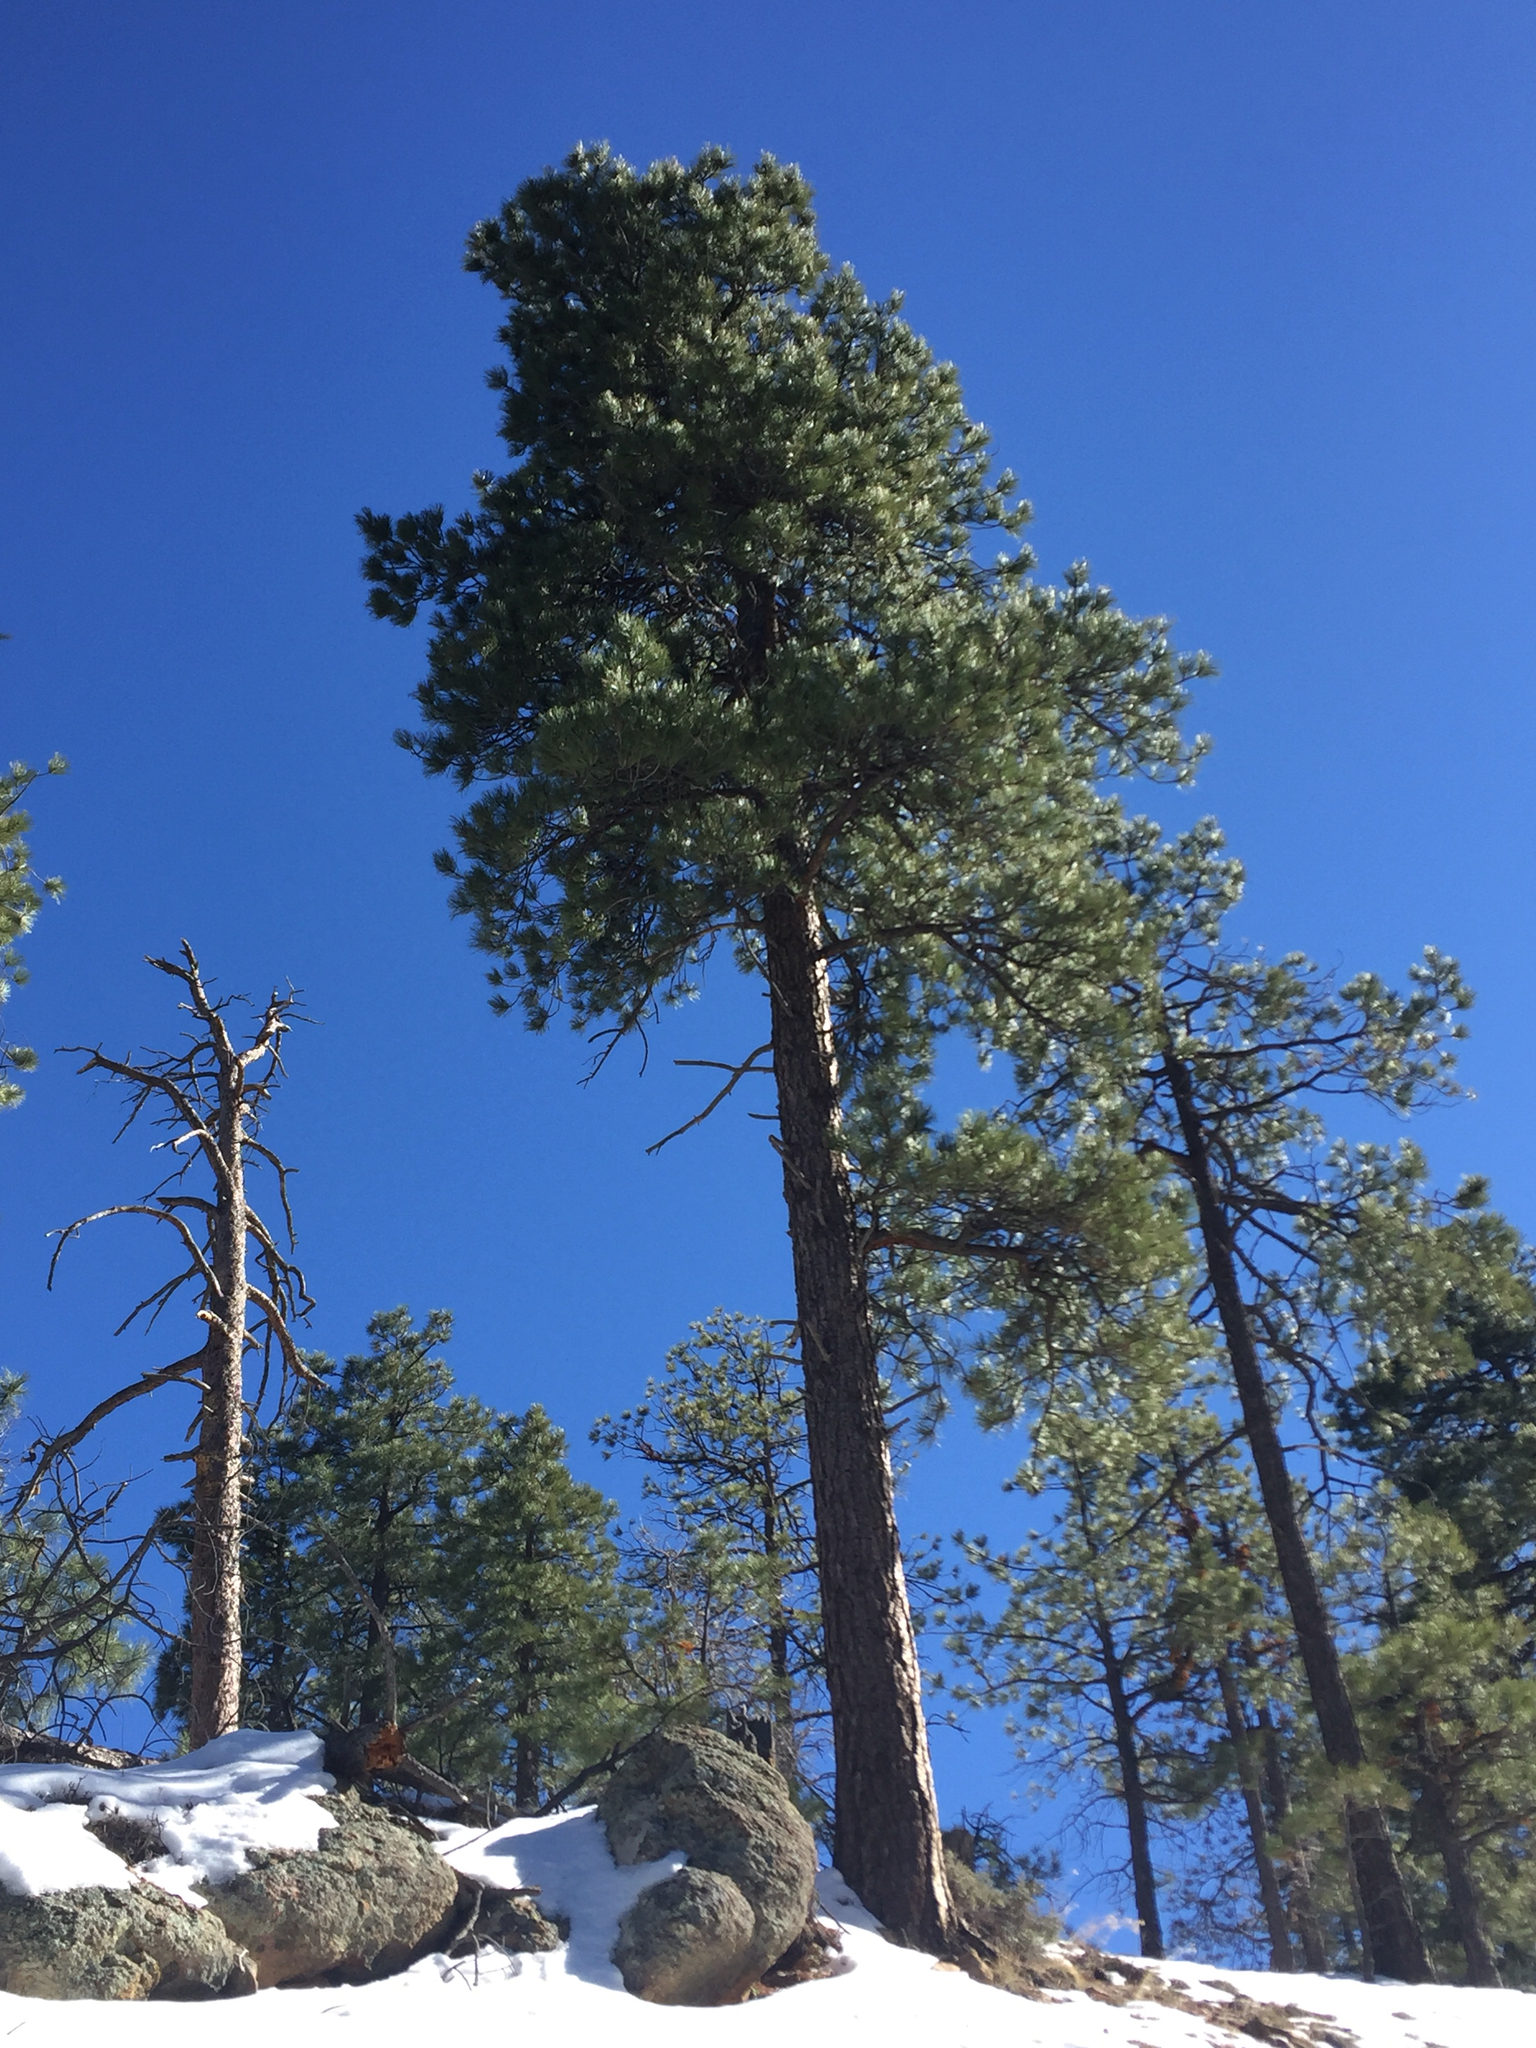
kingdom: Plantae
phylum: Tracheophyta
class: Pinopsida
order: Pinales
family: Pinaceae
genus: Pinus
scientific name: Pinus ponderosa
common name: Western yellow-pine
